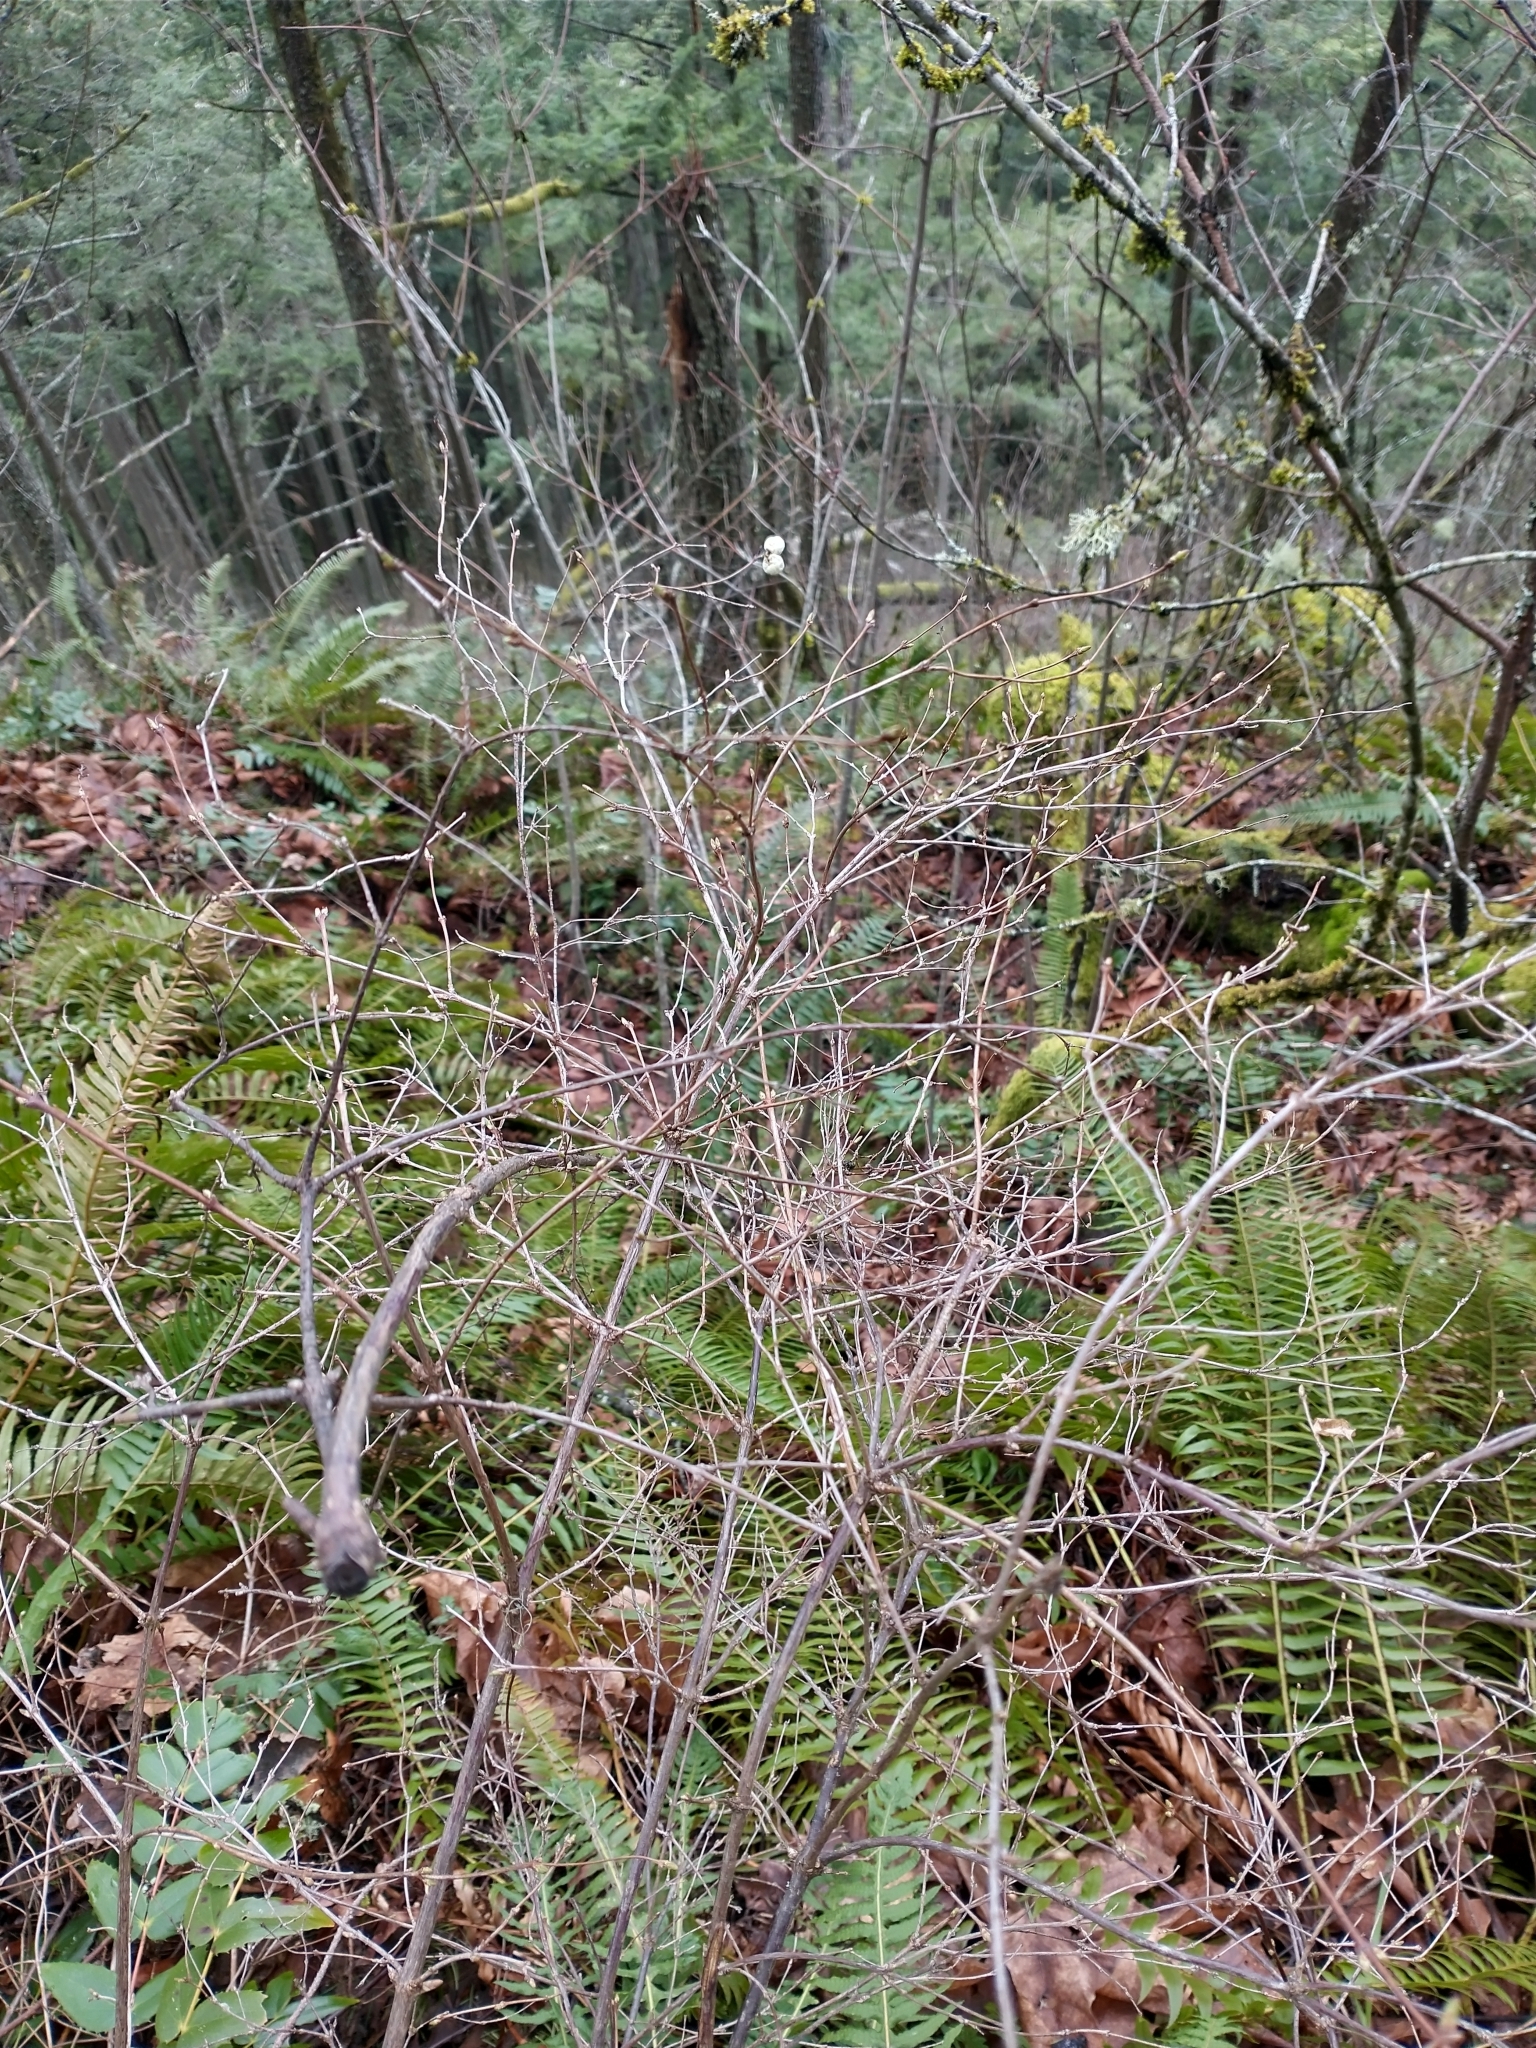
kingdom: Plantae
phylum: Tracheophyta
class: Magnoliopsida
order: Dipsacales
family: Caprifoliaceae
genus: Symphoricarpos
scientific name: Symphoricarpos albus
